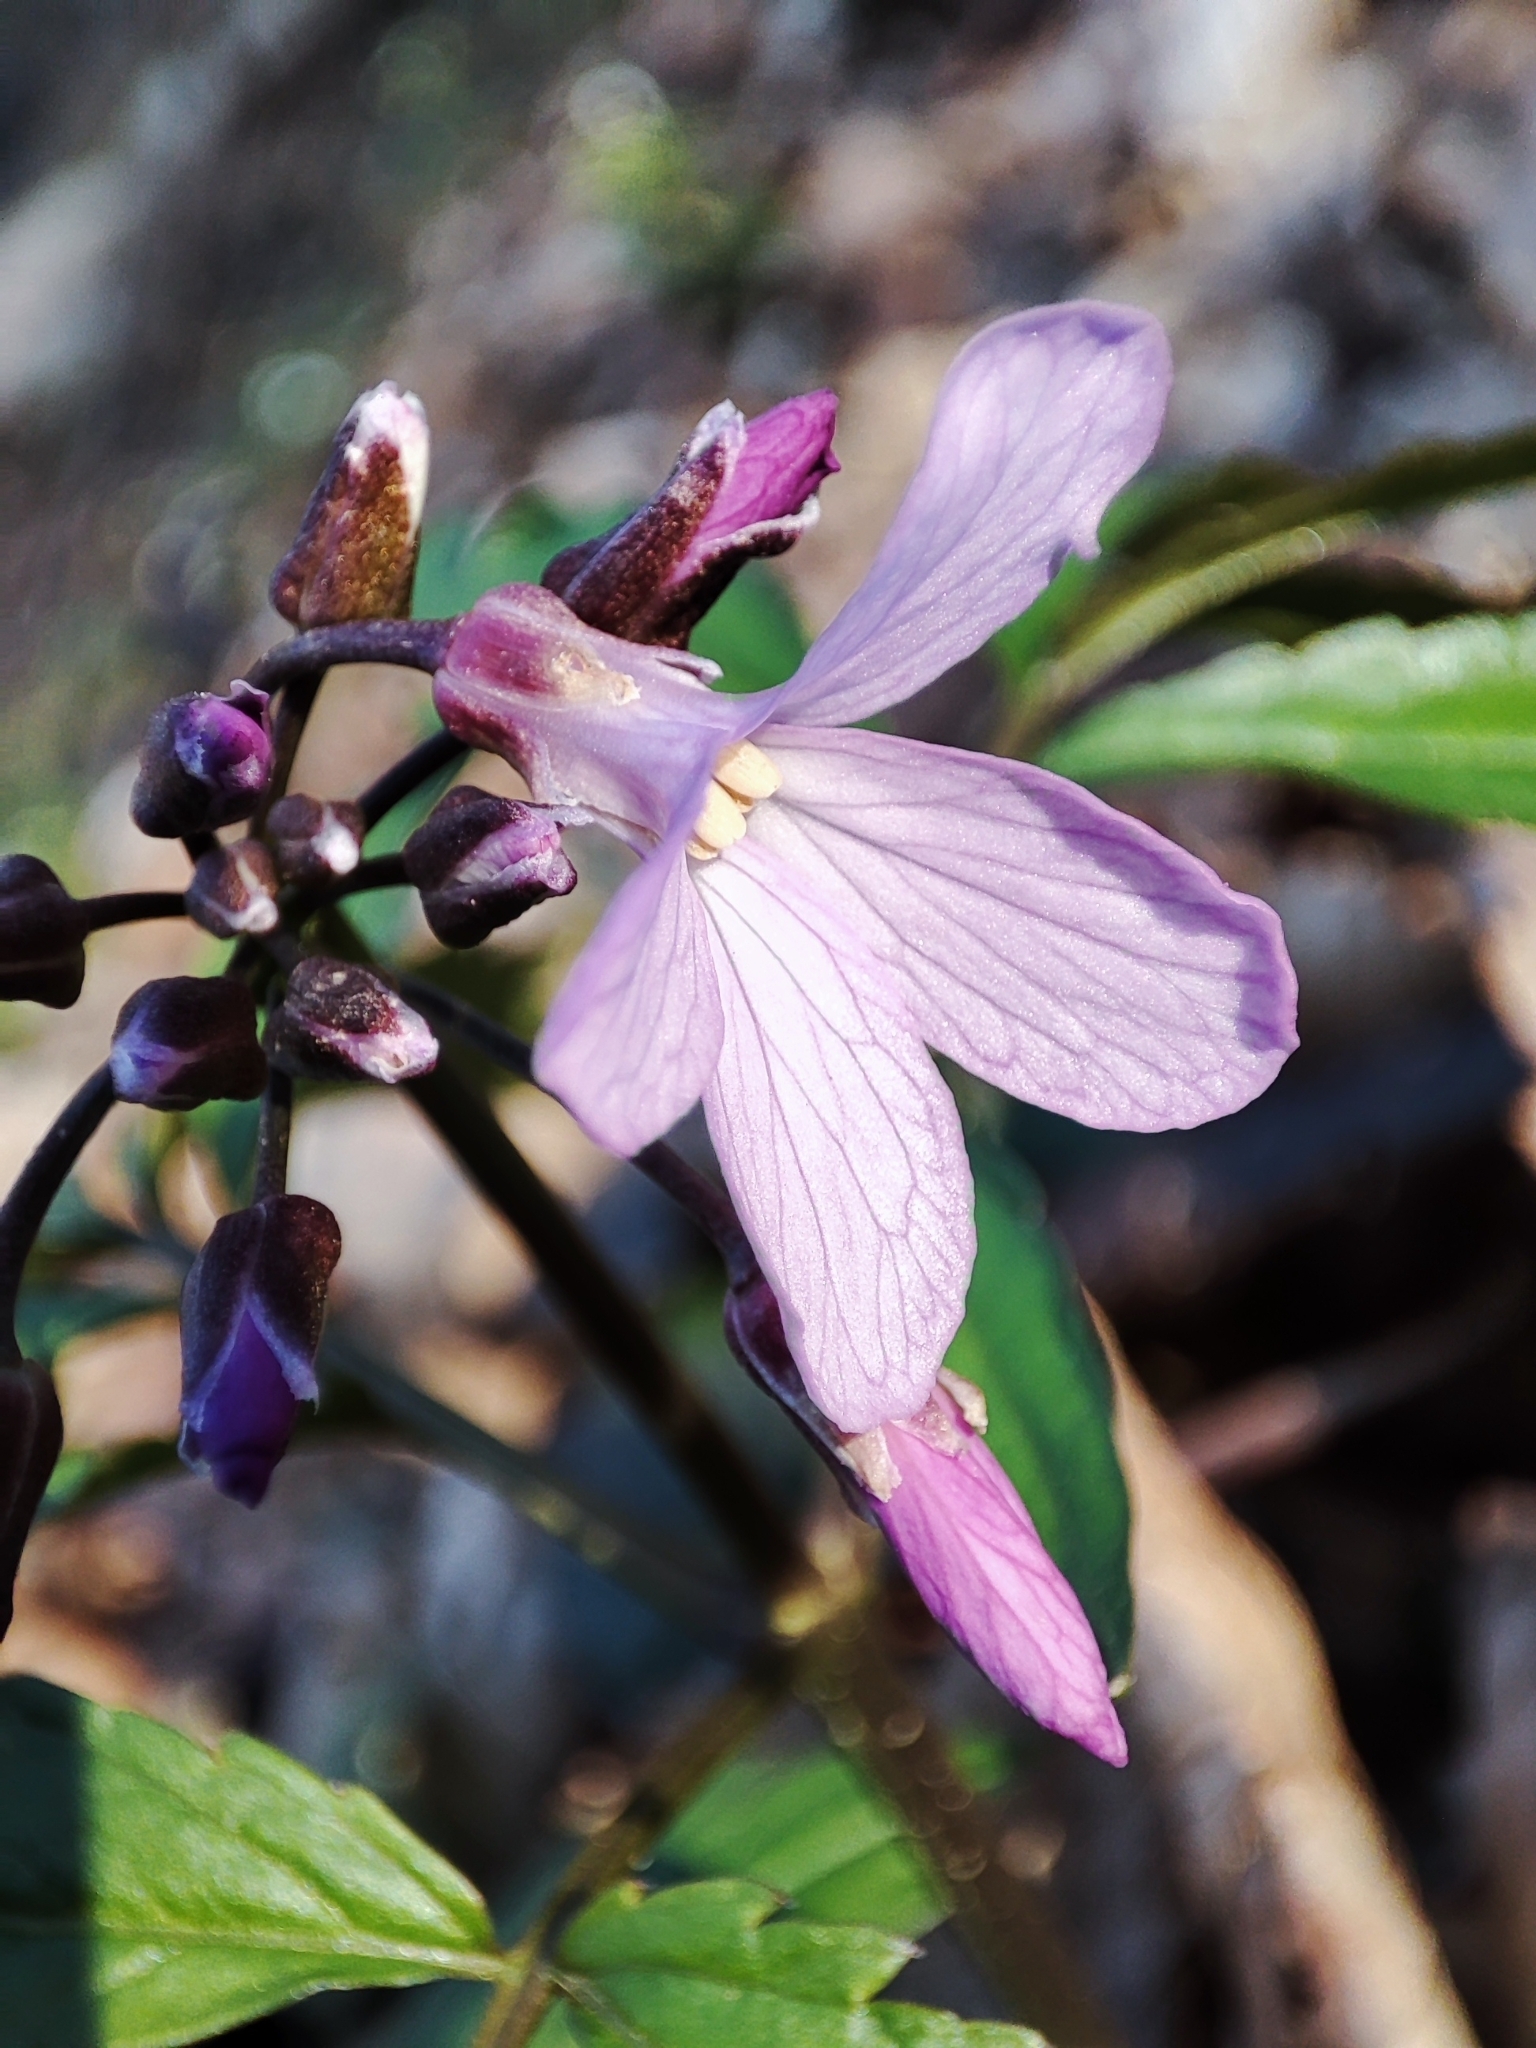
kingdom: Plantae
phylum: Tracheophyta
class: Magnoliopsida
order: Brassicales
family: Brassicaceae
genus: Cardamine
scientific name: Cardamine quinquefolia
